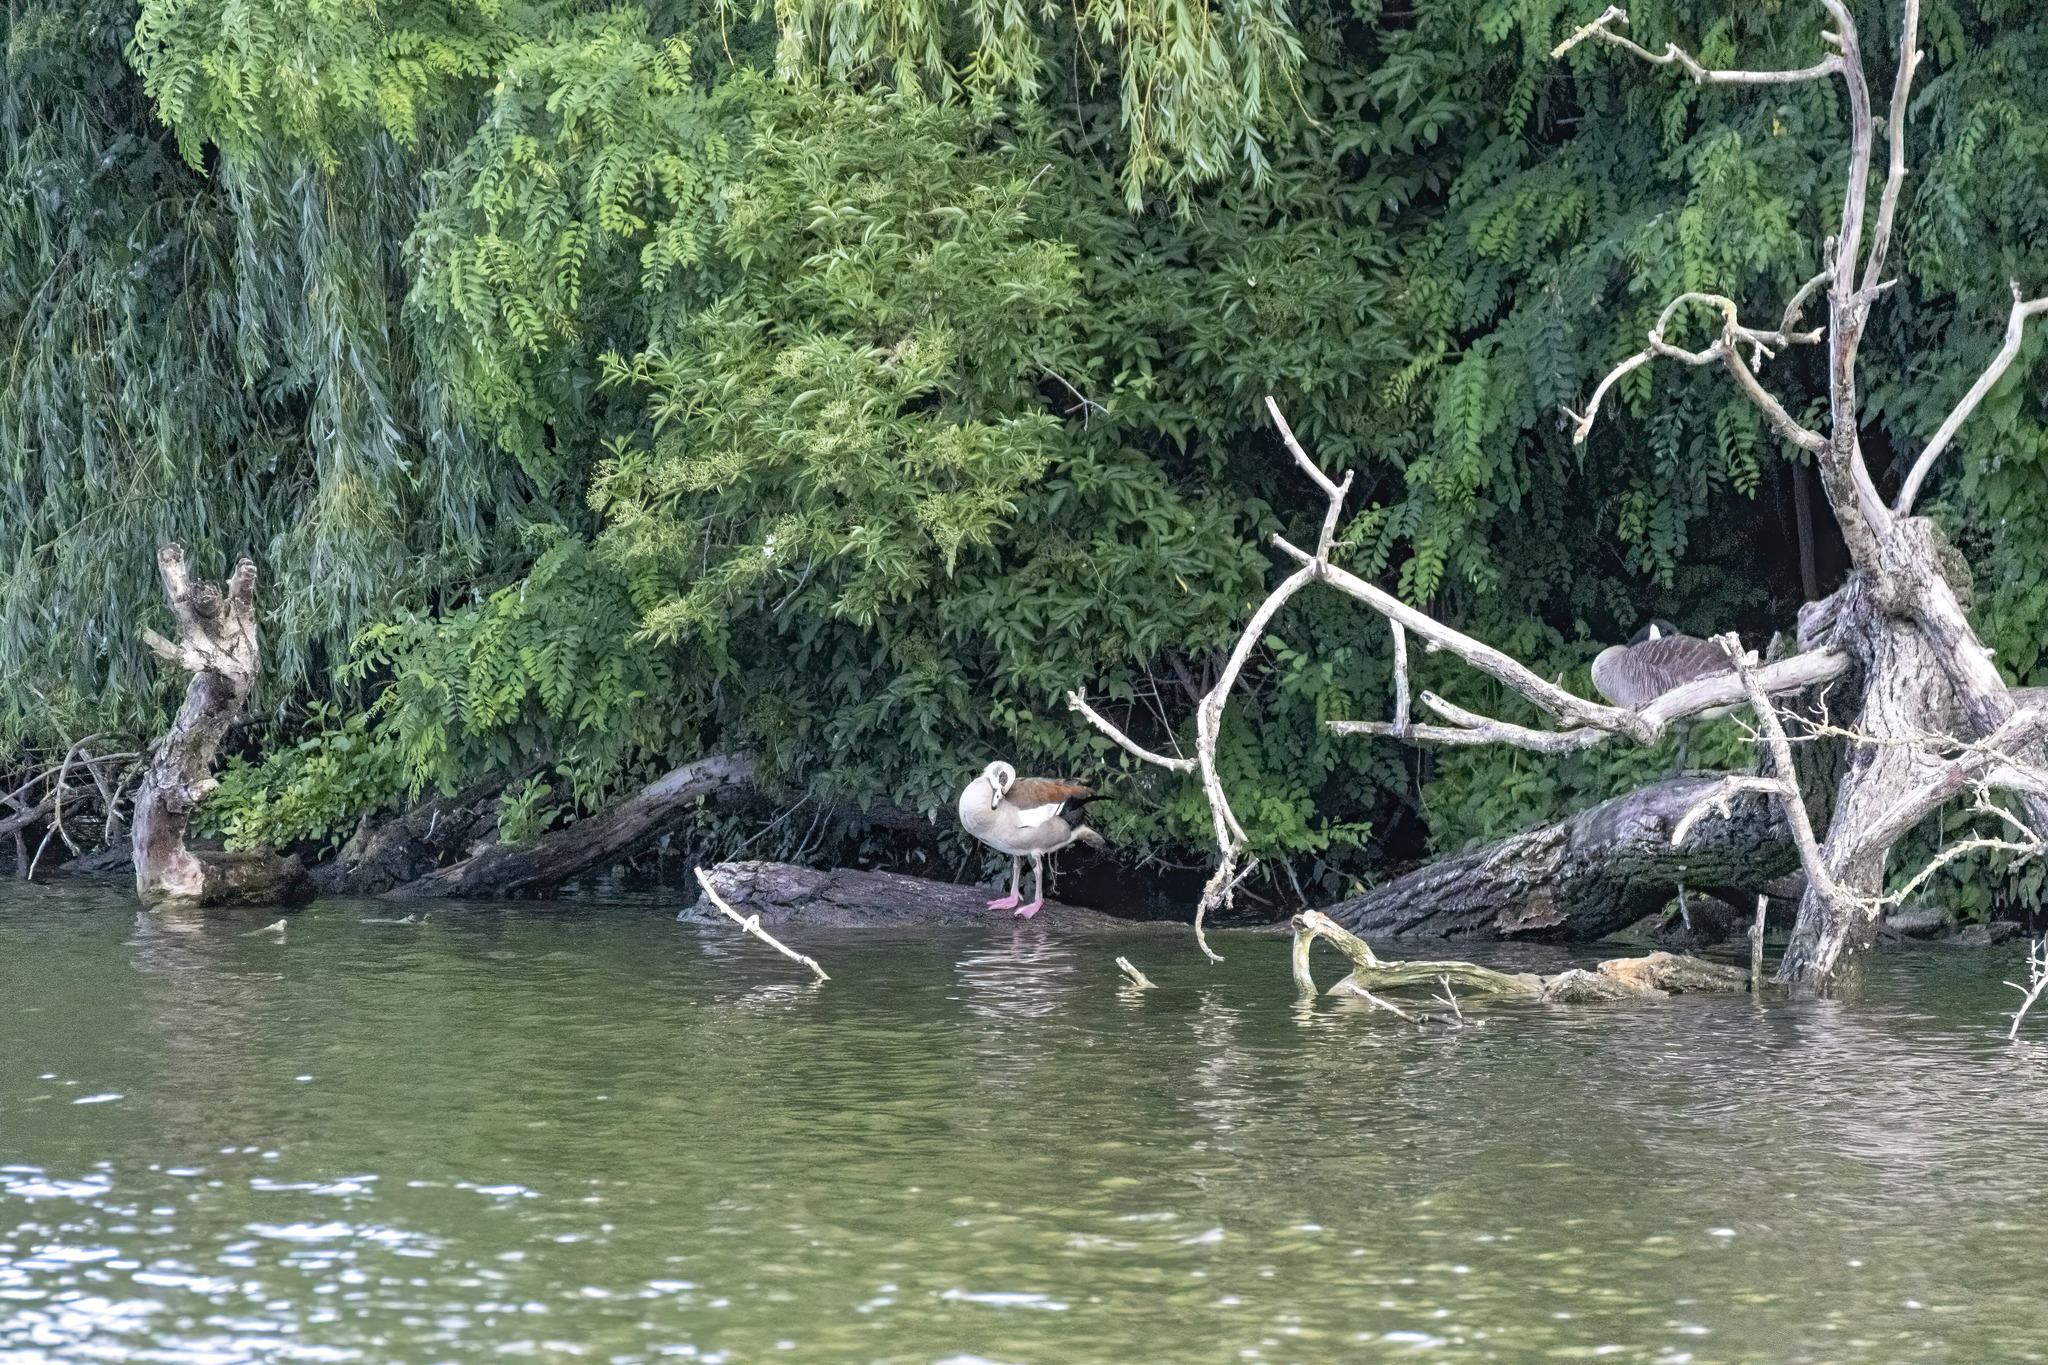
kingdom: Animalia
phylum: Chordata
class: Aves
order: Anseriformes
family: Anatidae
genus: Alopochen
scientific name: Alopochen aegyptiaca
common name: Egyptian goose
